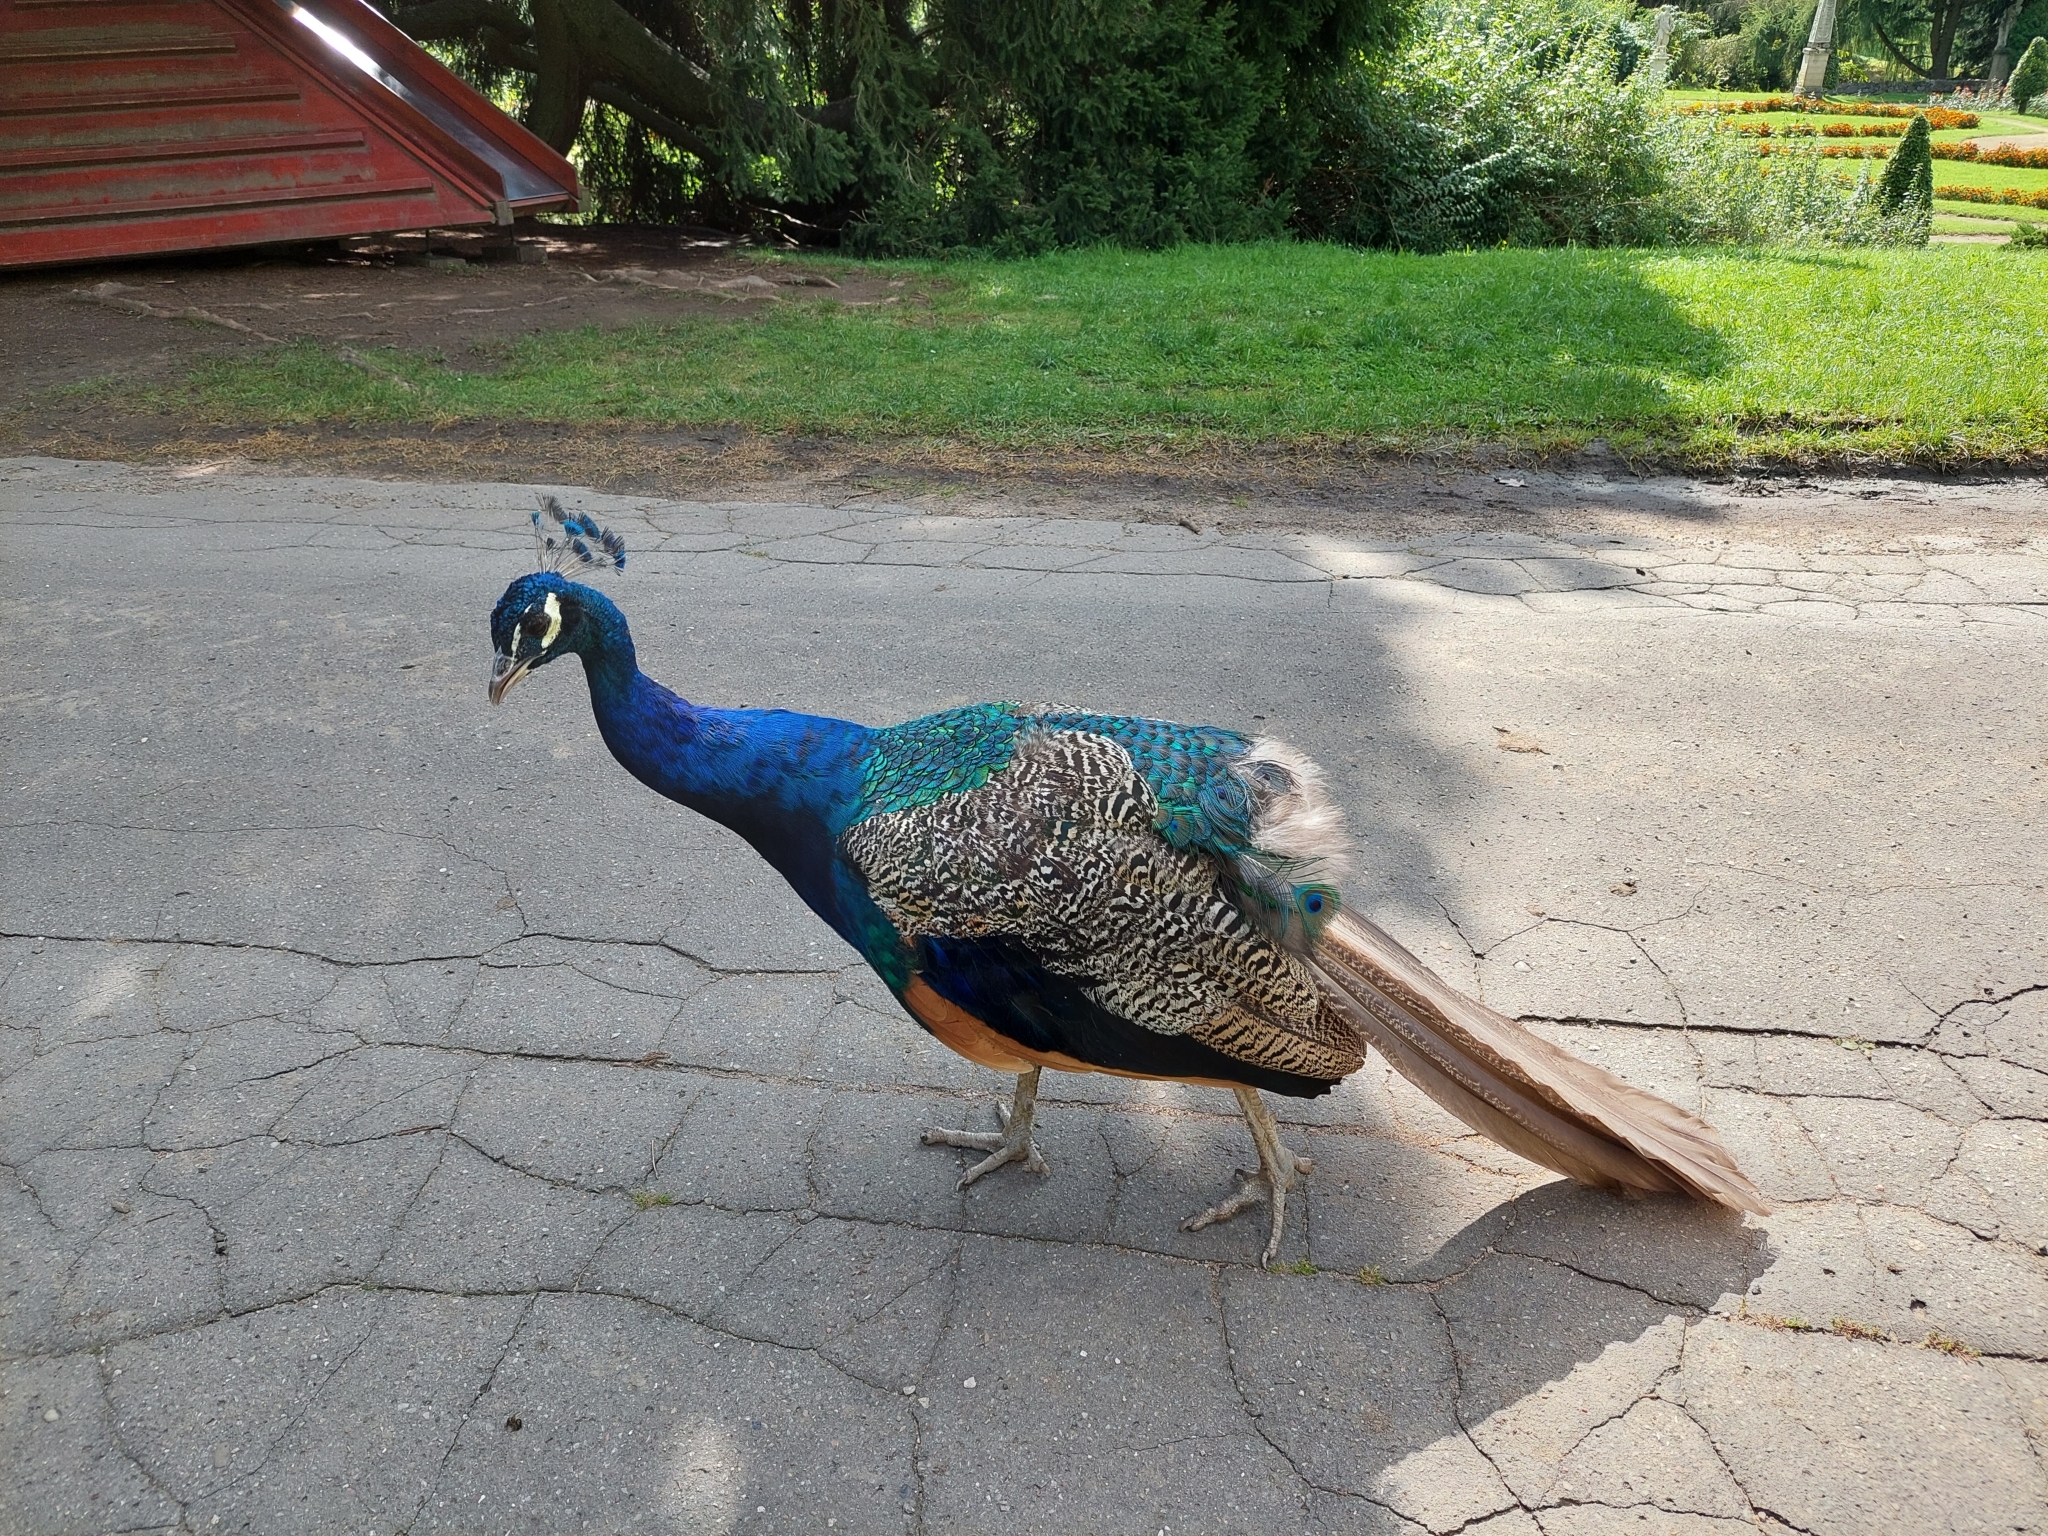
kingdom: Animalia
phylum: Chordata
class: Aves
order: Galliformes
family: Phasianidae
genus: Pavo
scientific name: Pavo cristatus
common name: Indian peafowl
